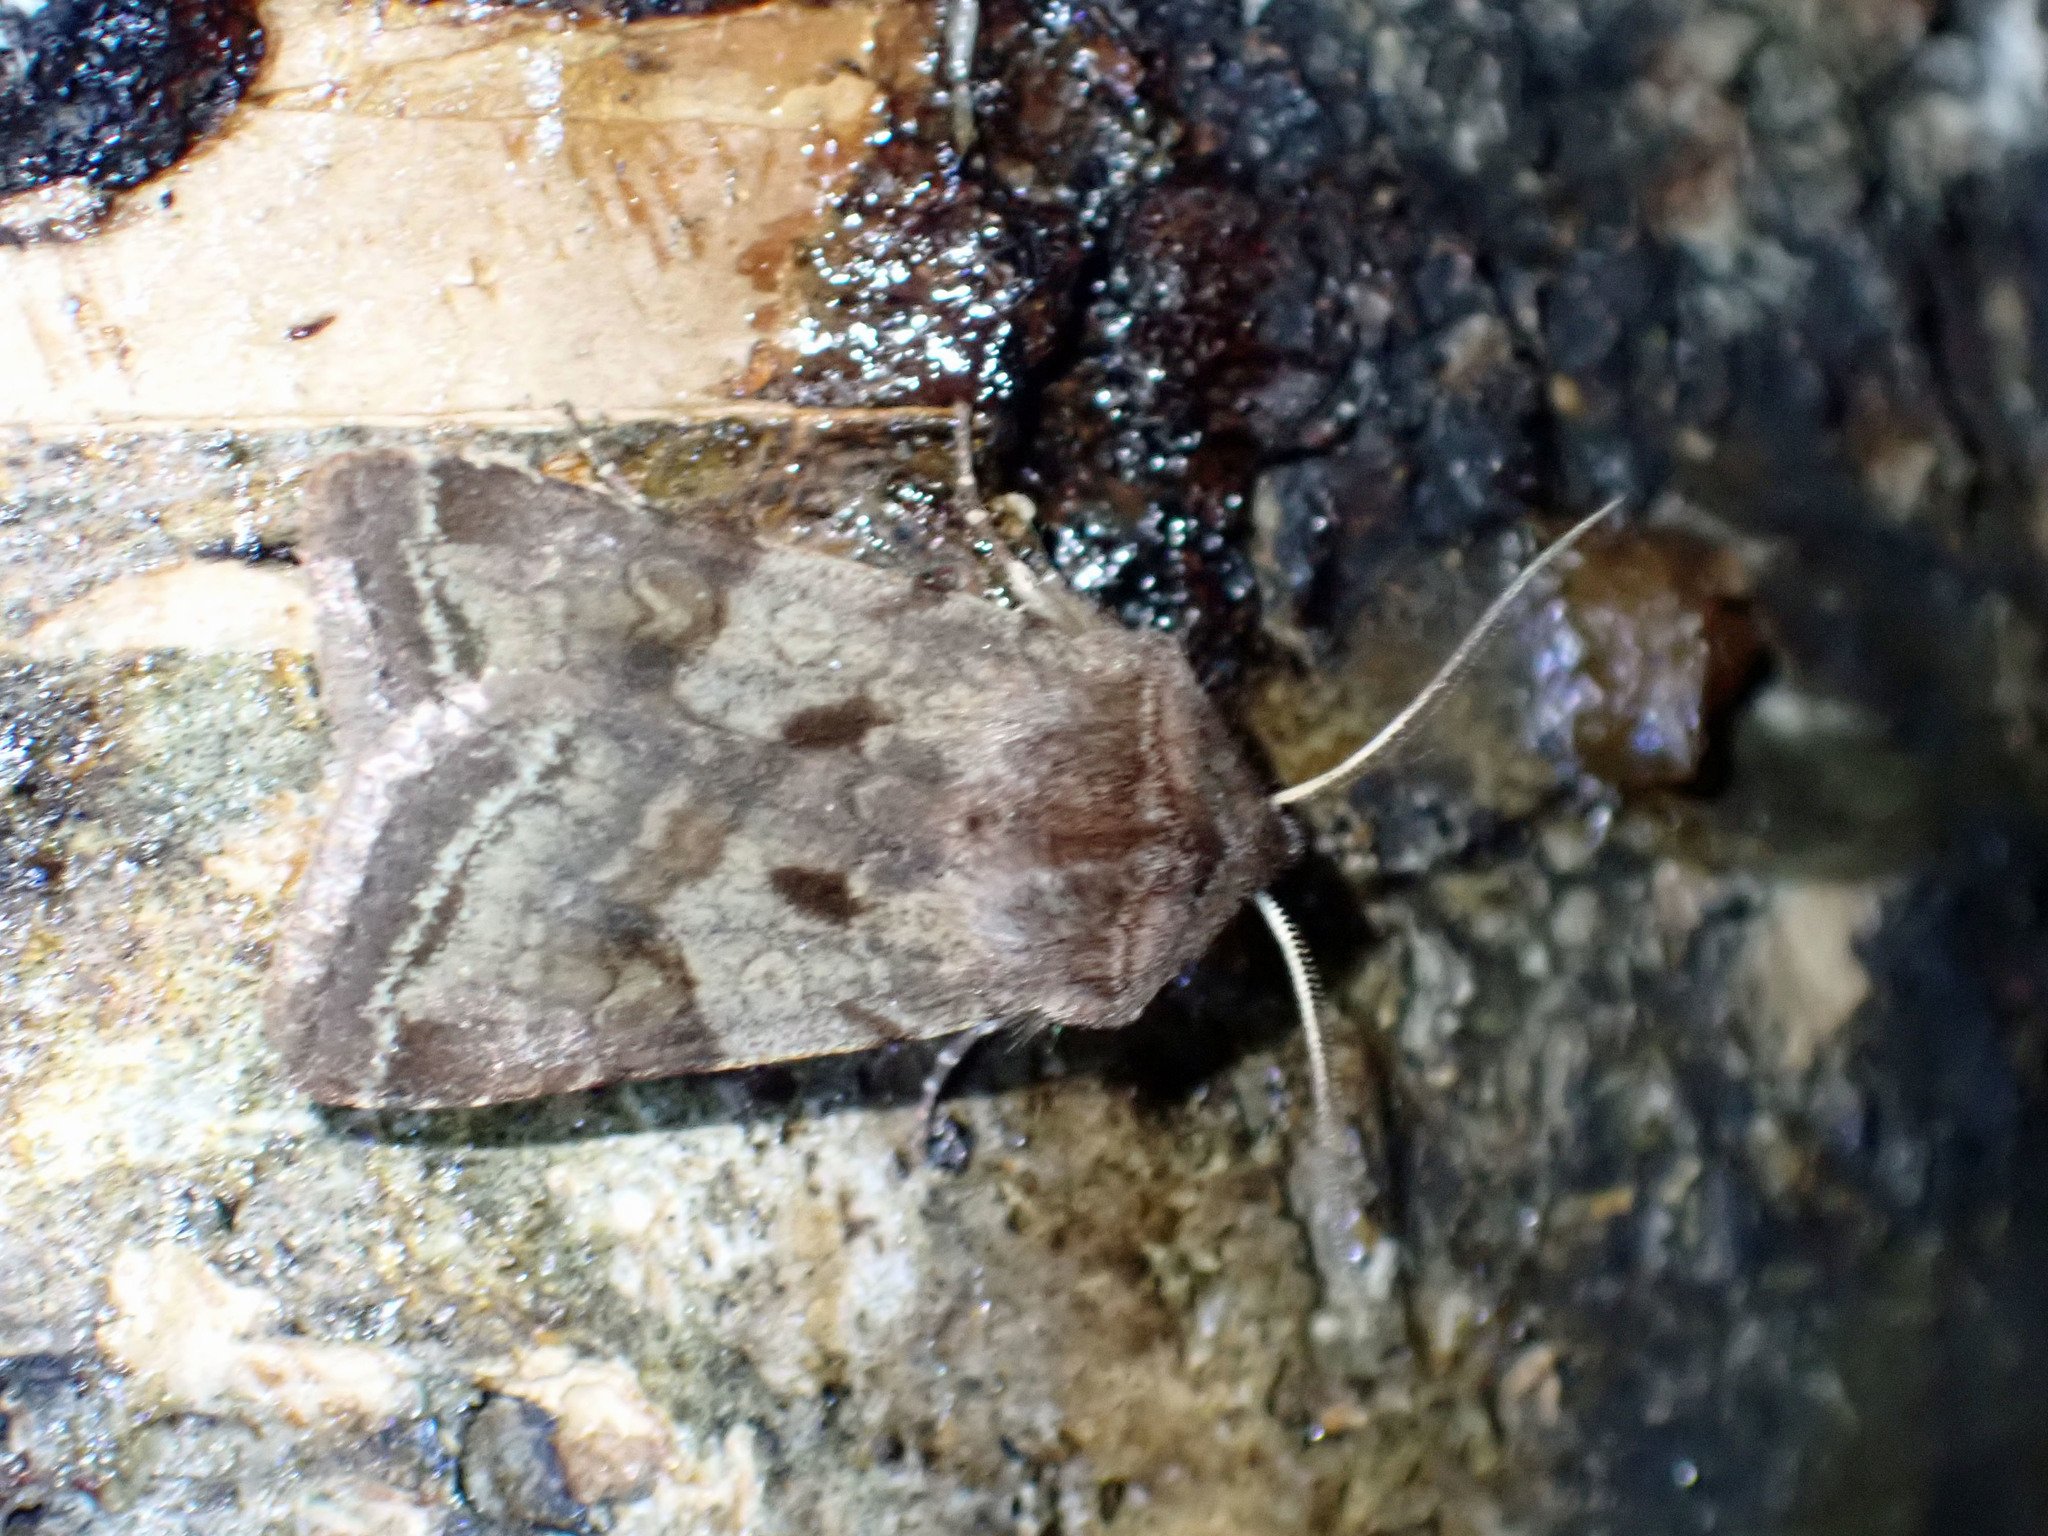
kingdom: Animalia
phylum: Arthropoda
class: Insecta
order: Lepidoptera
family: Noctuidae
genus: Cerastis
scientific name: Cerastis salicarum
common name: Willow dart
